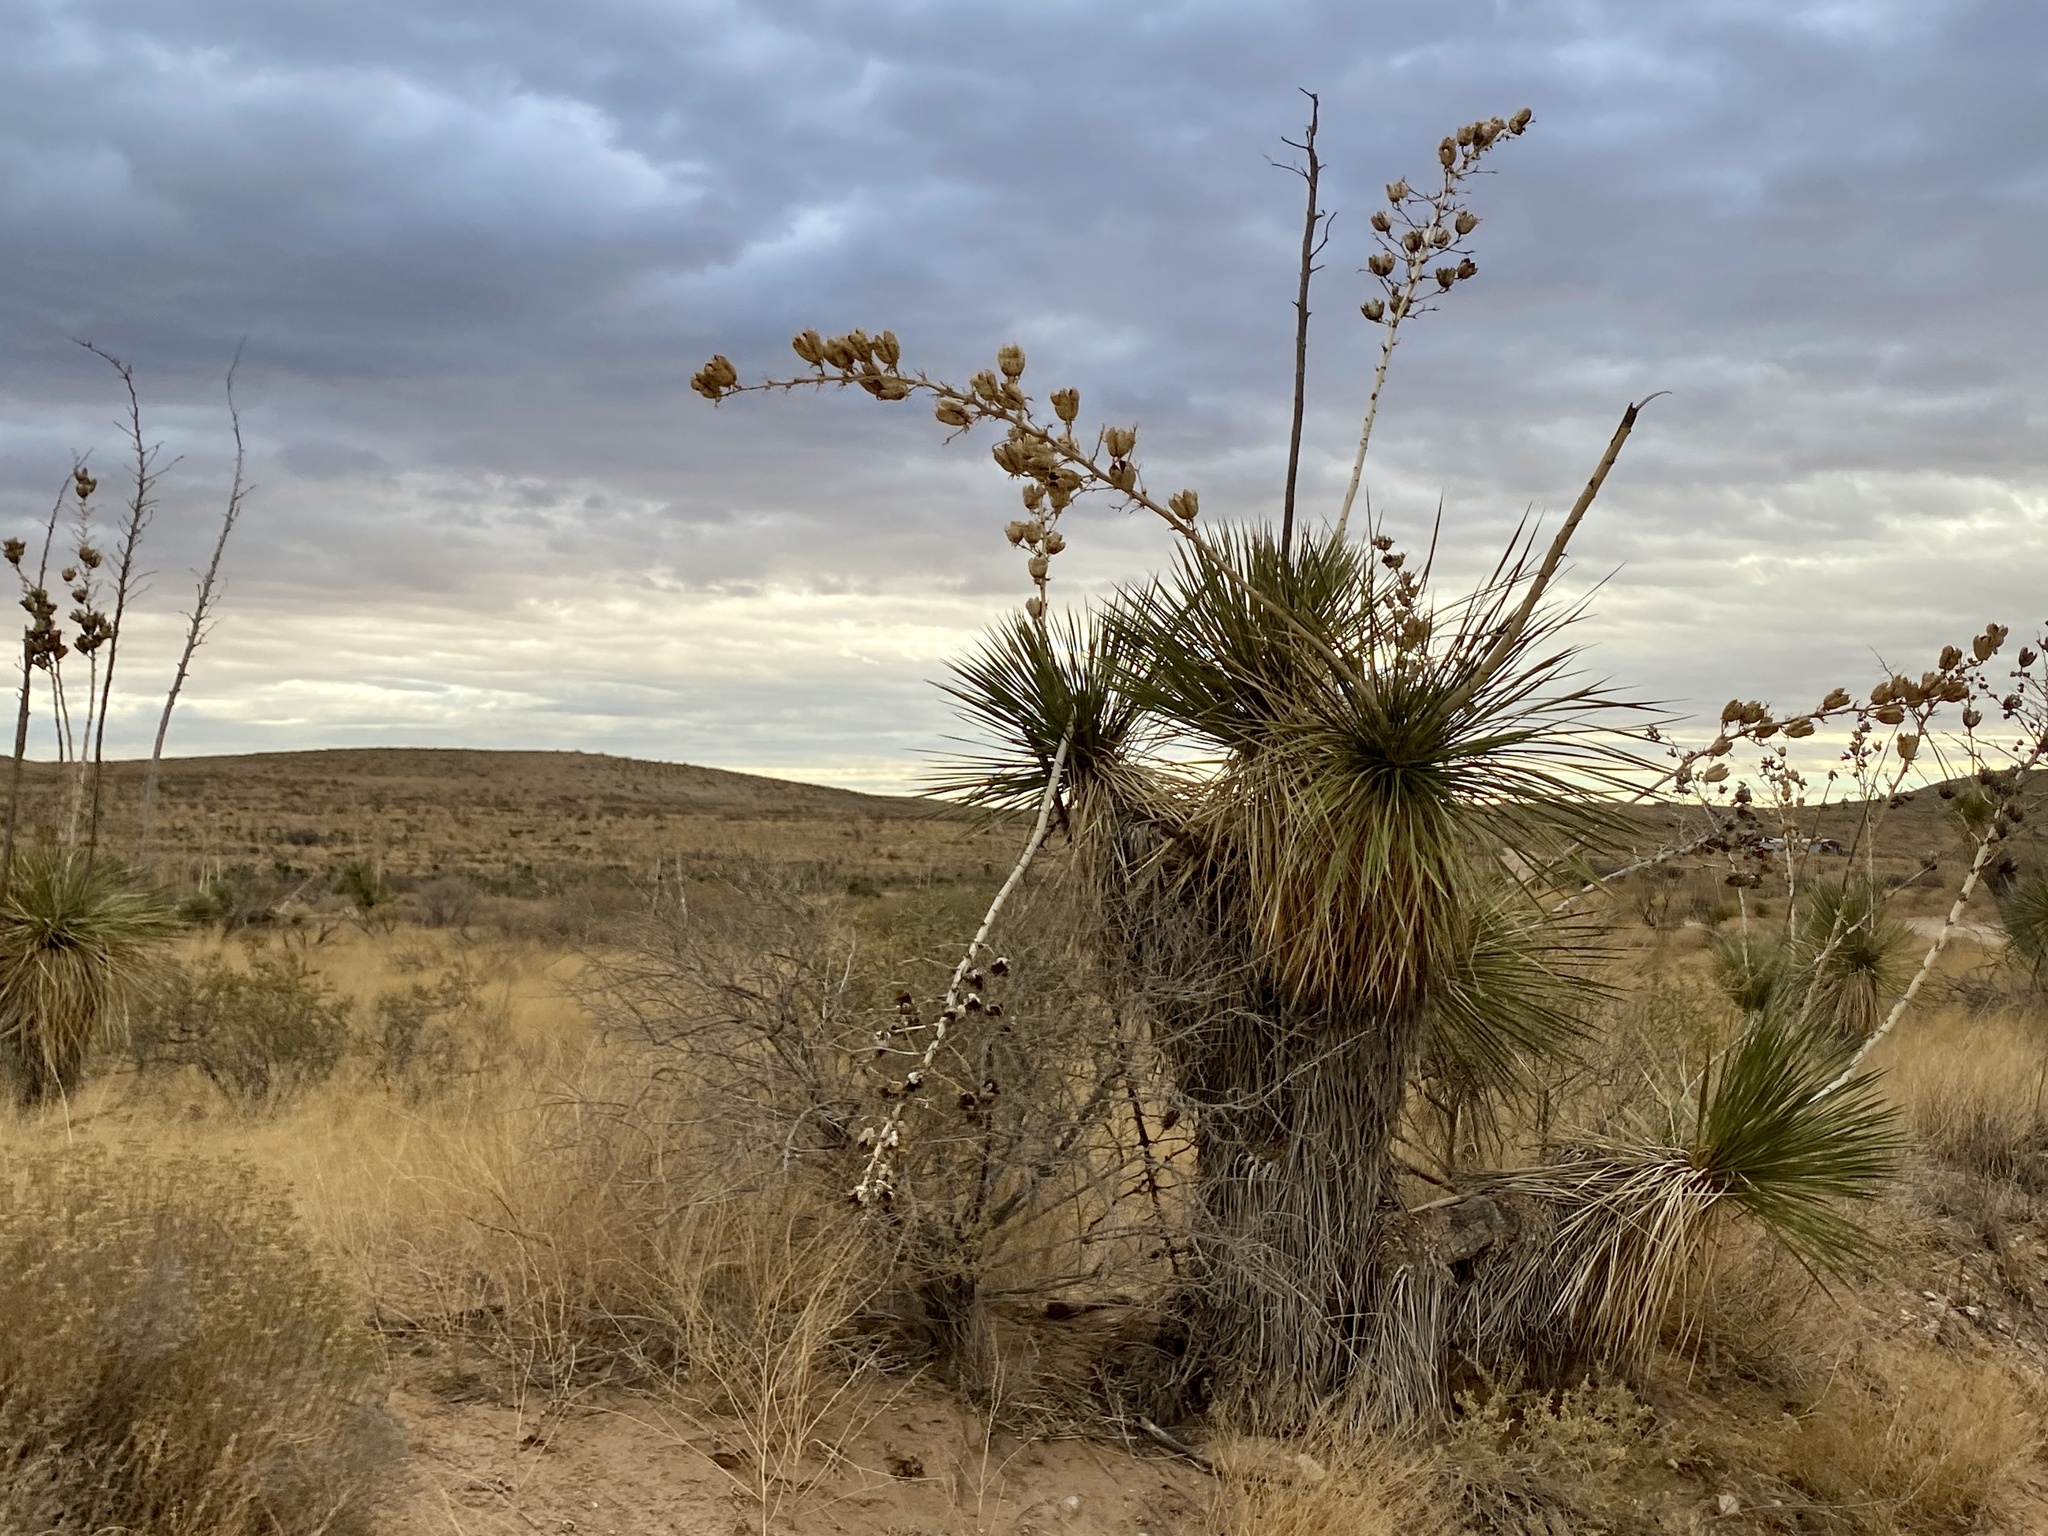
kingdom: Plantae
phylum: Tracheophyta
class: Liliopsida
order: Asparagales
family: Asparagaceae
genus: Yucca
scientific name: Yucca elata
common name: Palmella
